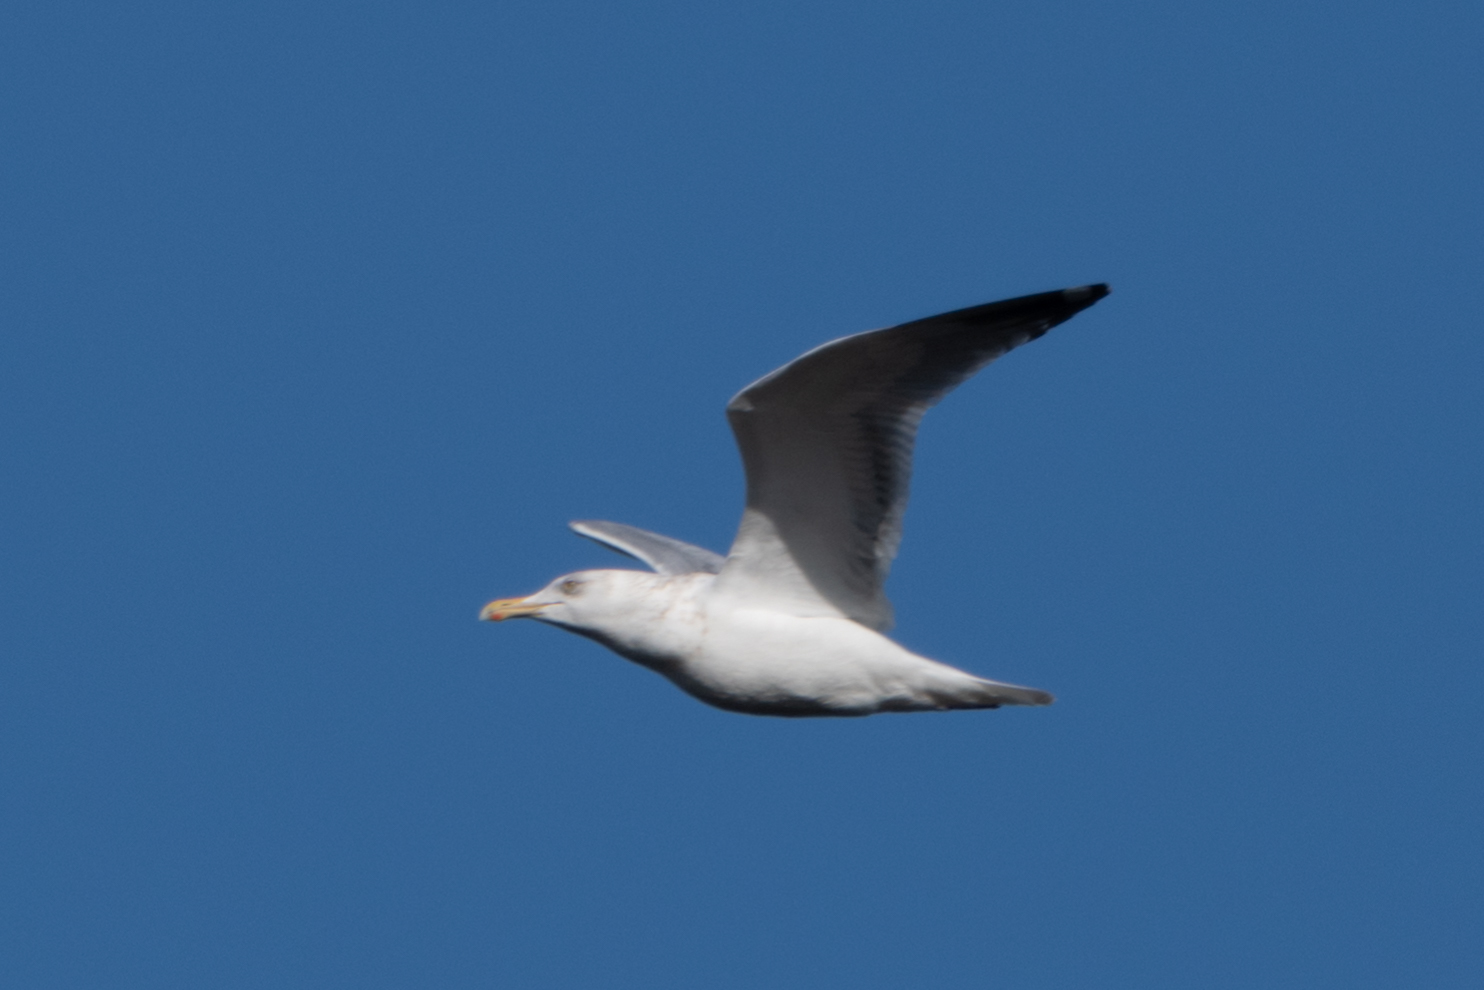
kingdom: Animalia
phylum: Chordata
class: Aves
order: Charadriiformes
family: Laridae
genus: Larus
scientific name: Larus argentatus
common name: Herring gull
